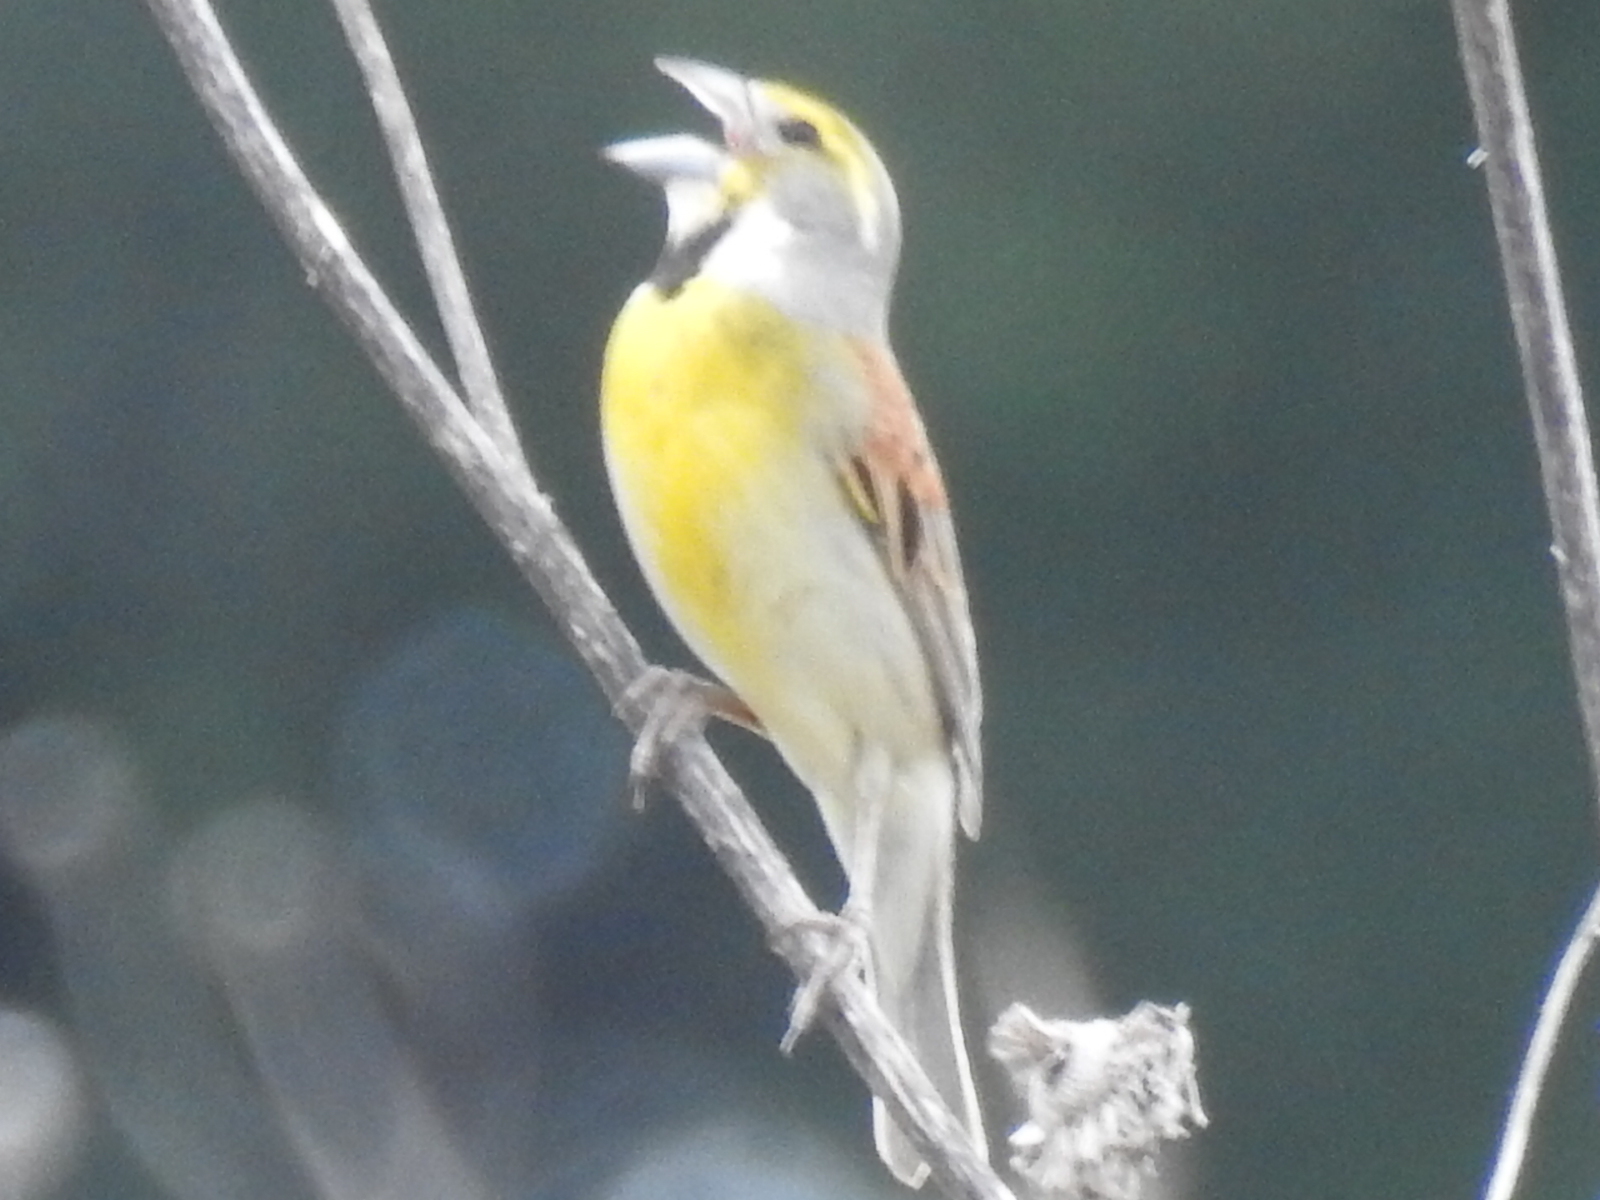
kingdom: Animalia
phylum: Chordata
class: Aves
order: Passeriformes
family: Cardinalidae
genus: Spiza
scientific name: Spiza americana
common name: Dickcissel
